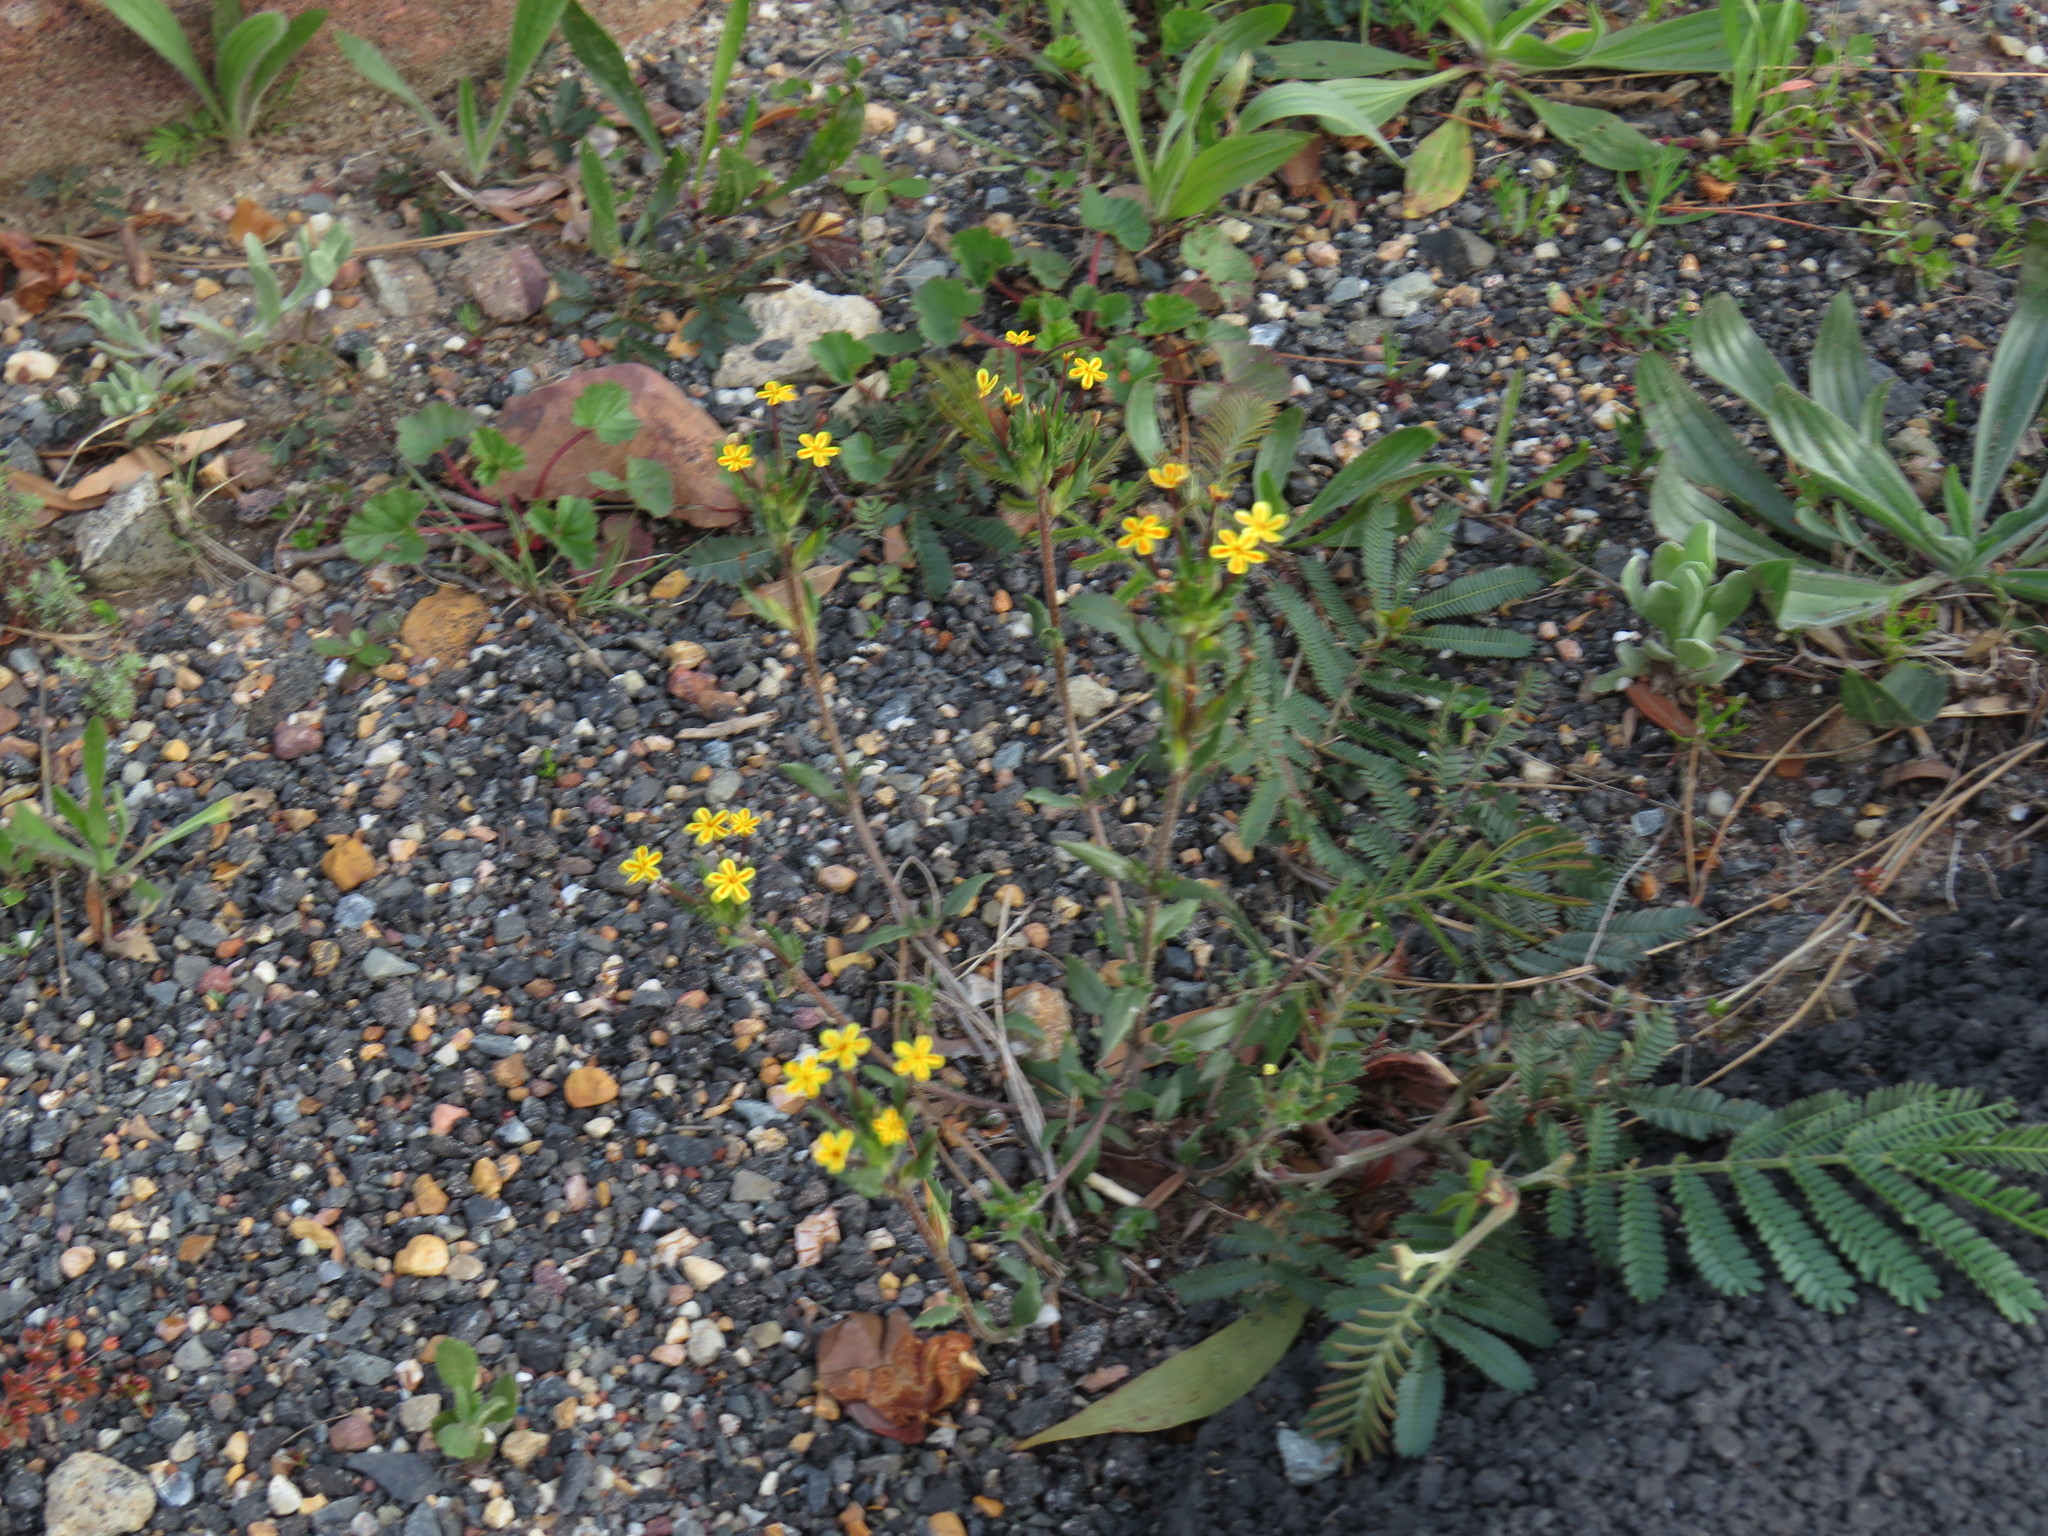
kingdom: Plantae
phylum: Tracheophyta
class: Magnoliopsida
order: Lamiales
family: Scrophulariaceae
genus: Zaluzianskya
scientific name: Zaluzianskya divaricata
